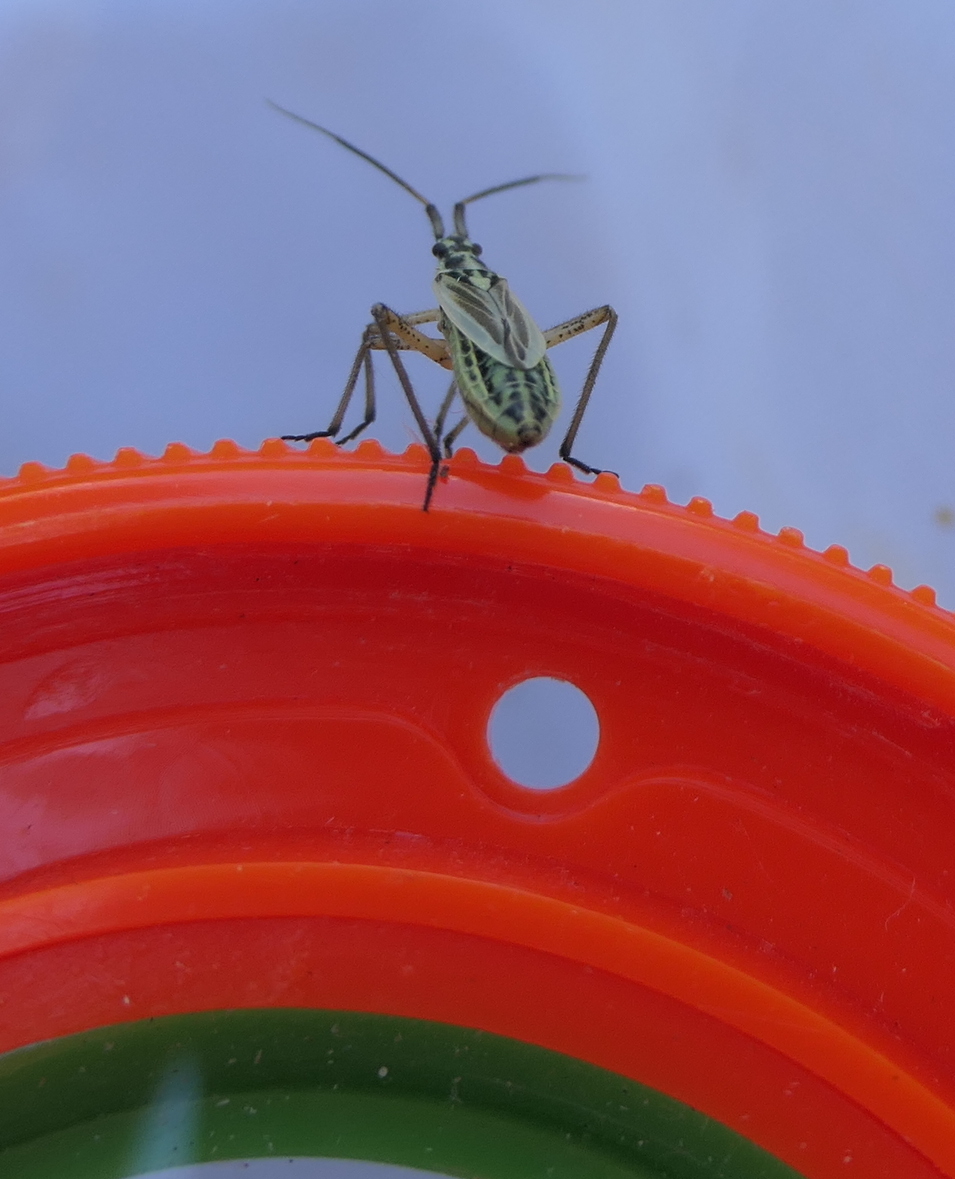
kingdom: Animalia
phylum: Arthropoda
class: Insecta
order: Hemiptera
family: Miridae
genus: Leptopterna
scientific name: Leptopterna dolabrata
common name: Meadow plant bug
